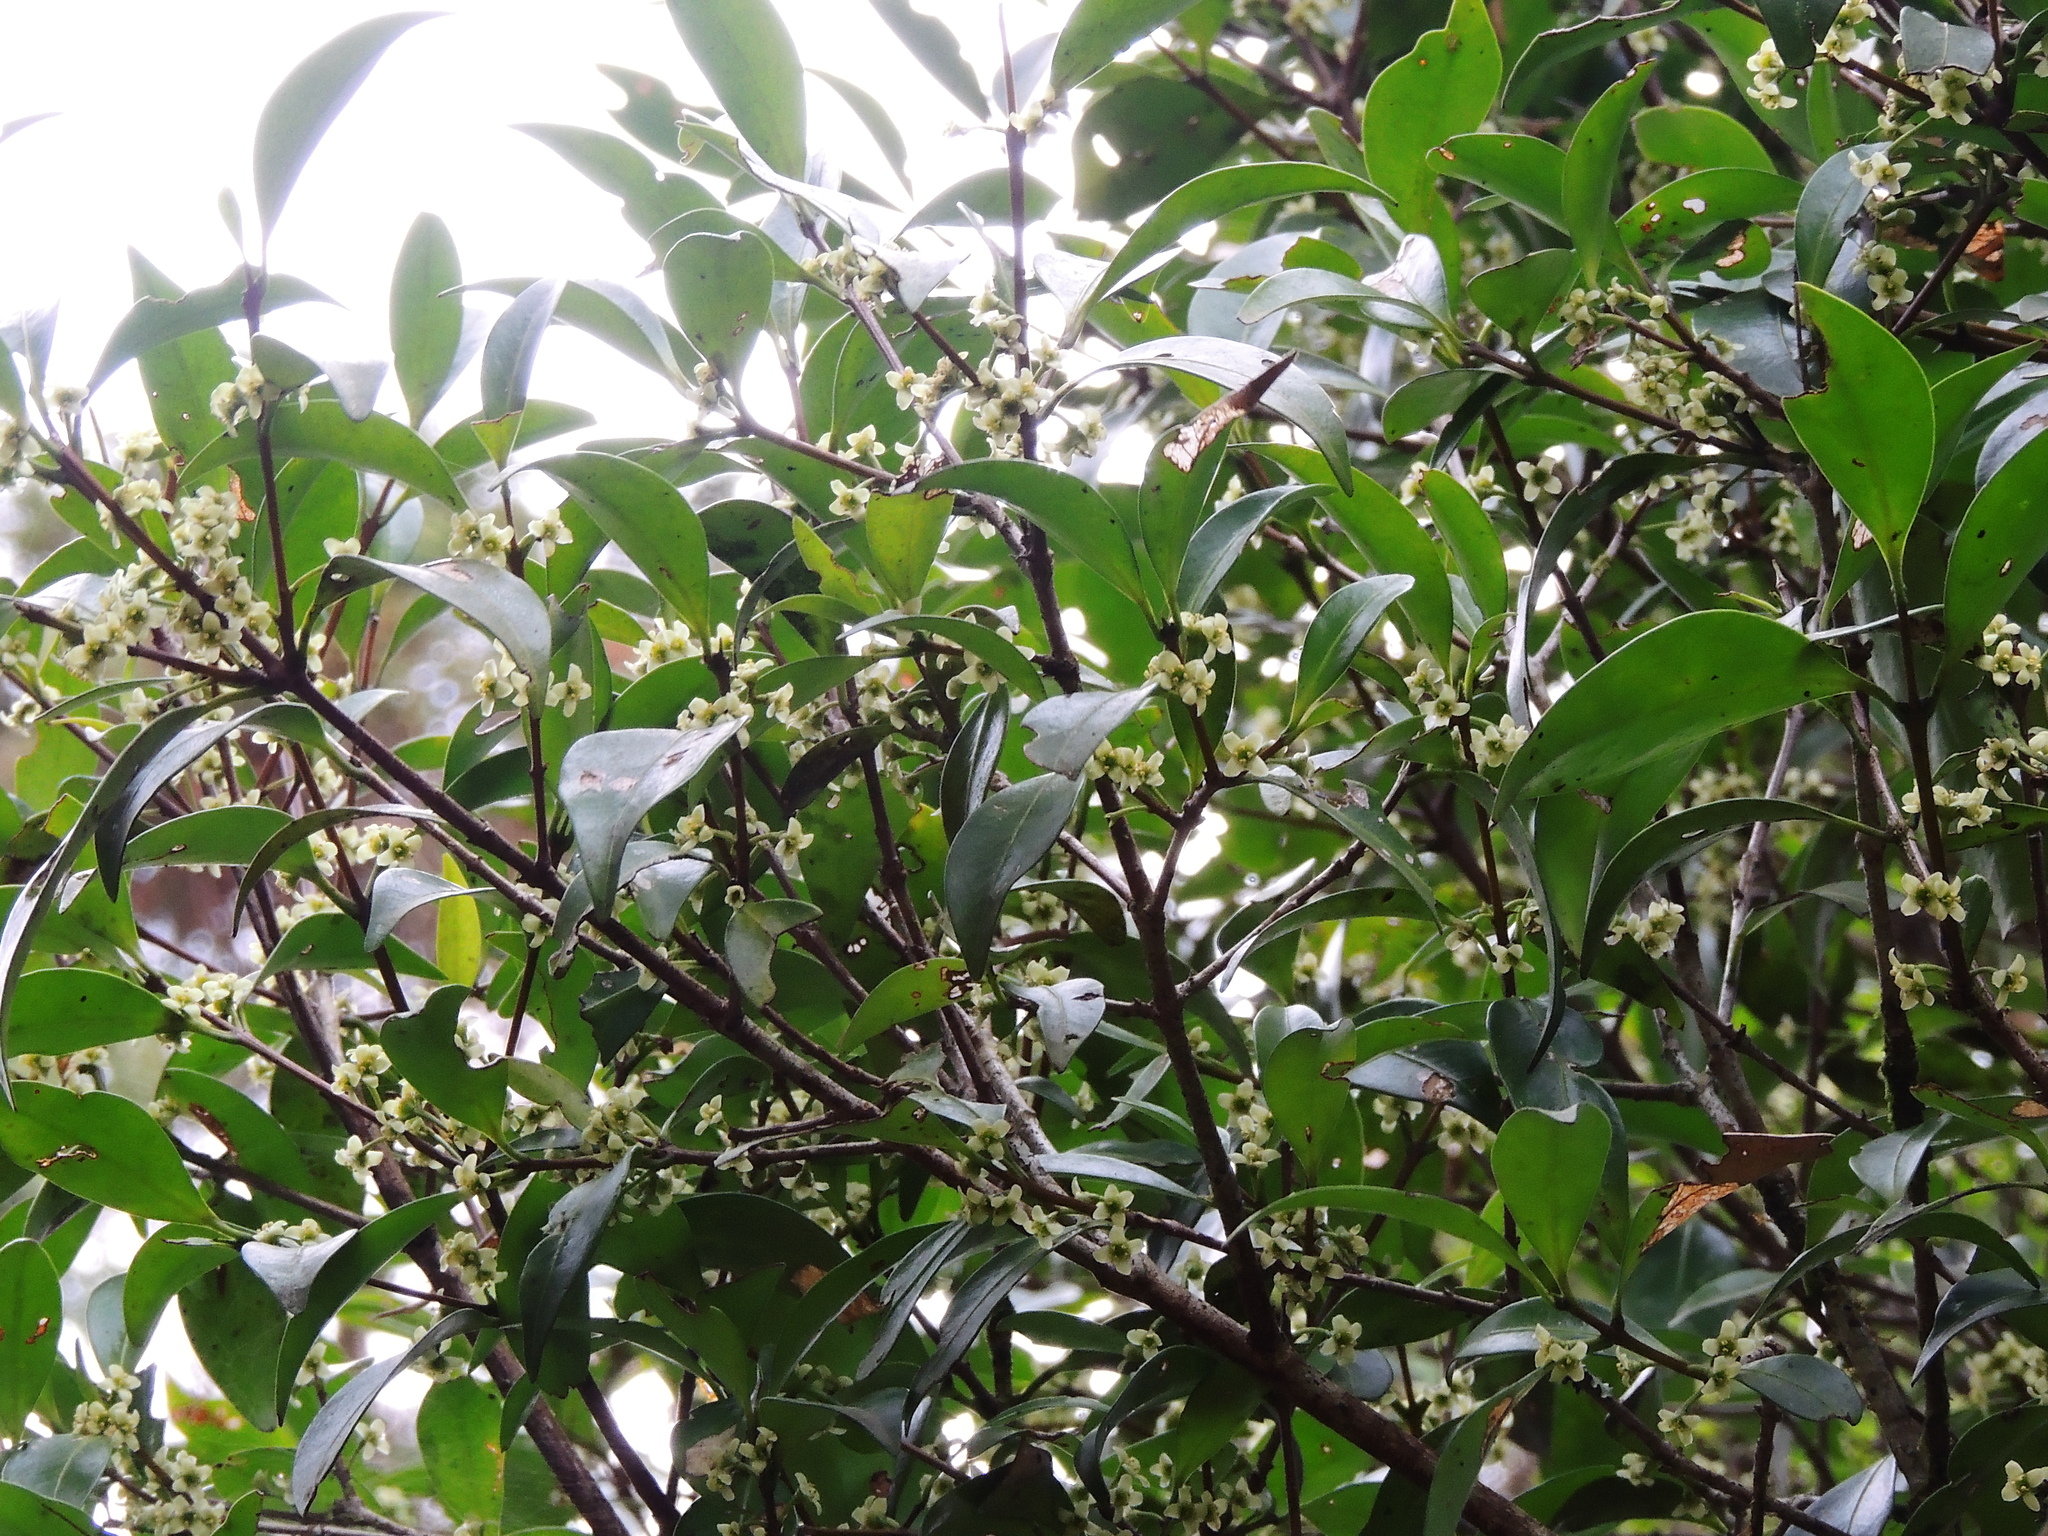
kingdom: Plantae
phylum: Tracheophyta
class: Magnoliopsida
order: Celastrales
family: Celastraceae
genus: Microtropis
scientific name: Microtropis yunnanensis
